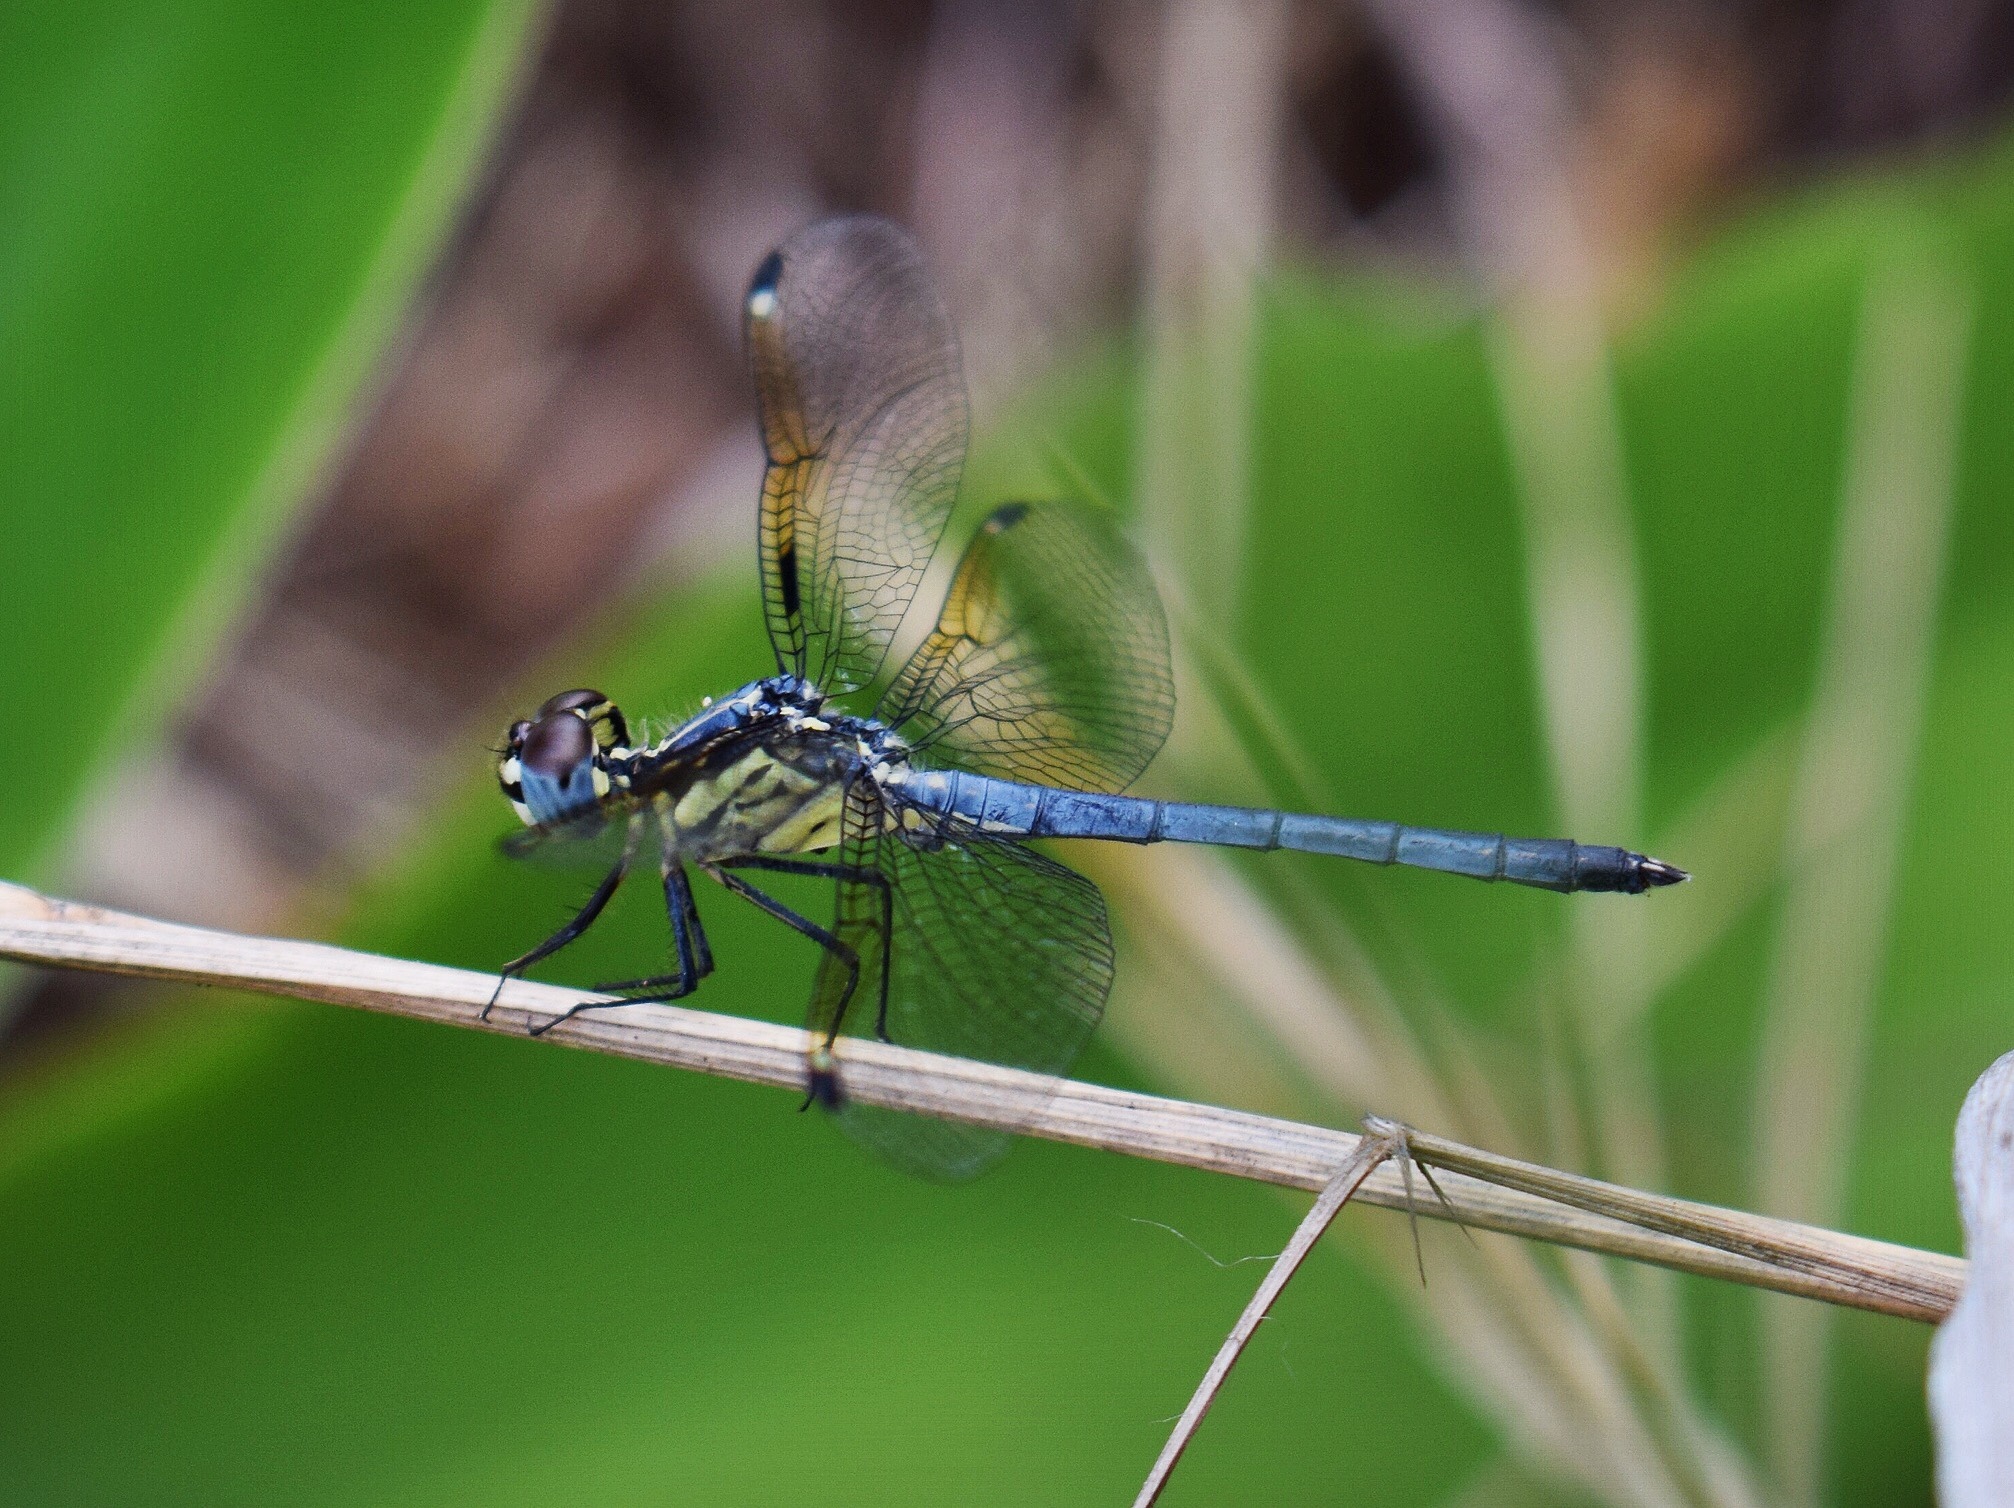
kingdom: Animalia
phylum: Arthropoda
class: Insecta
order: Odonata
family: Libellulidae
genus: Hemistigma
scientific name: Hemistigma albipunctum
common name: African pied-spot
